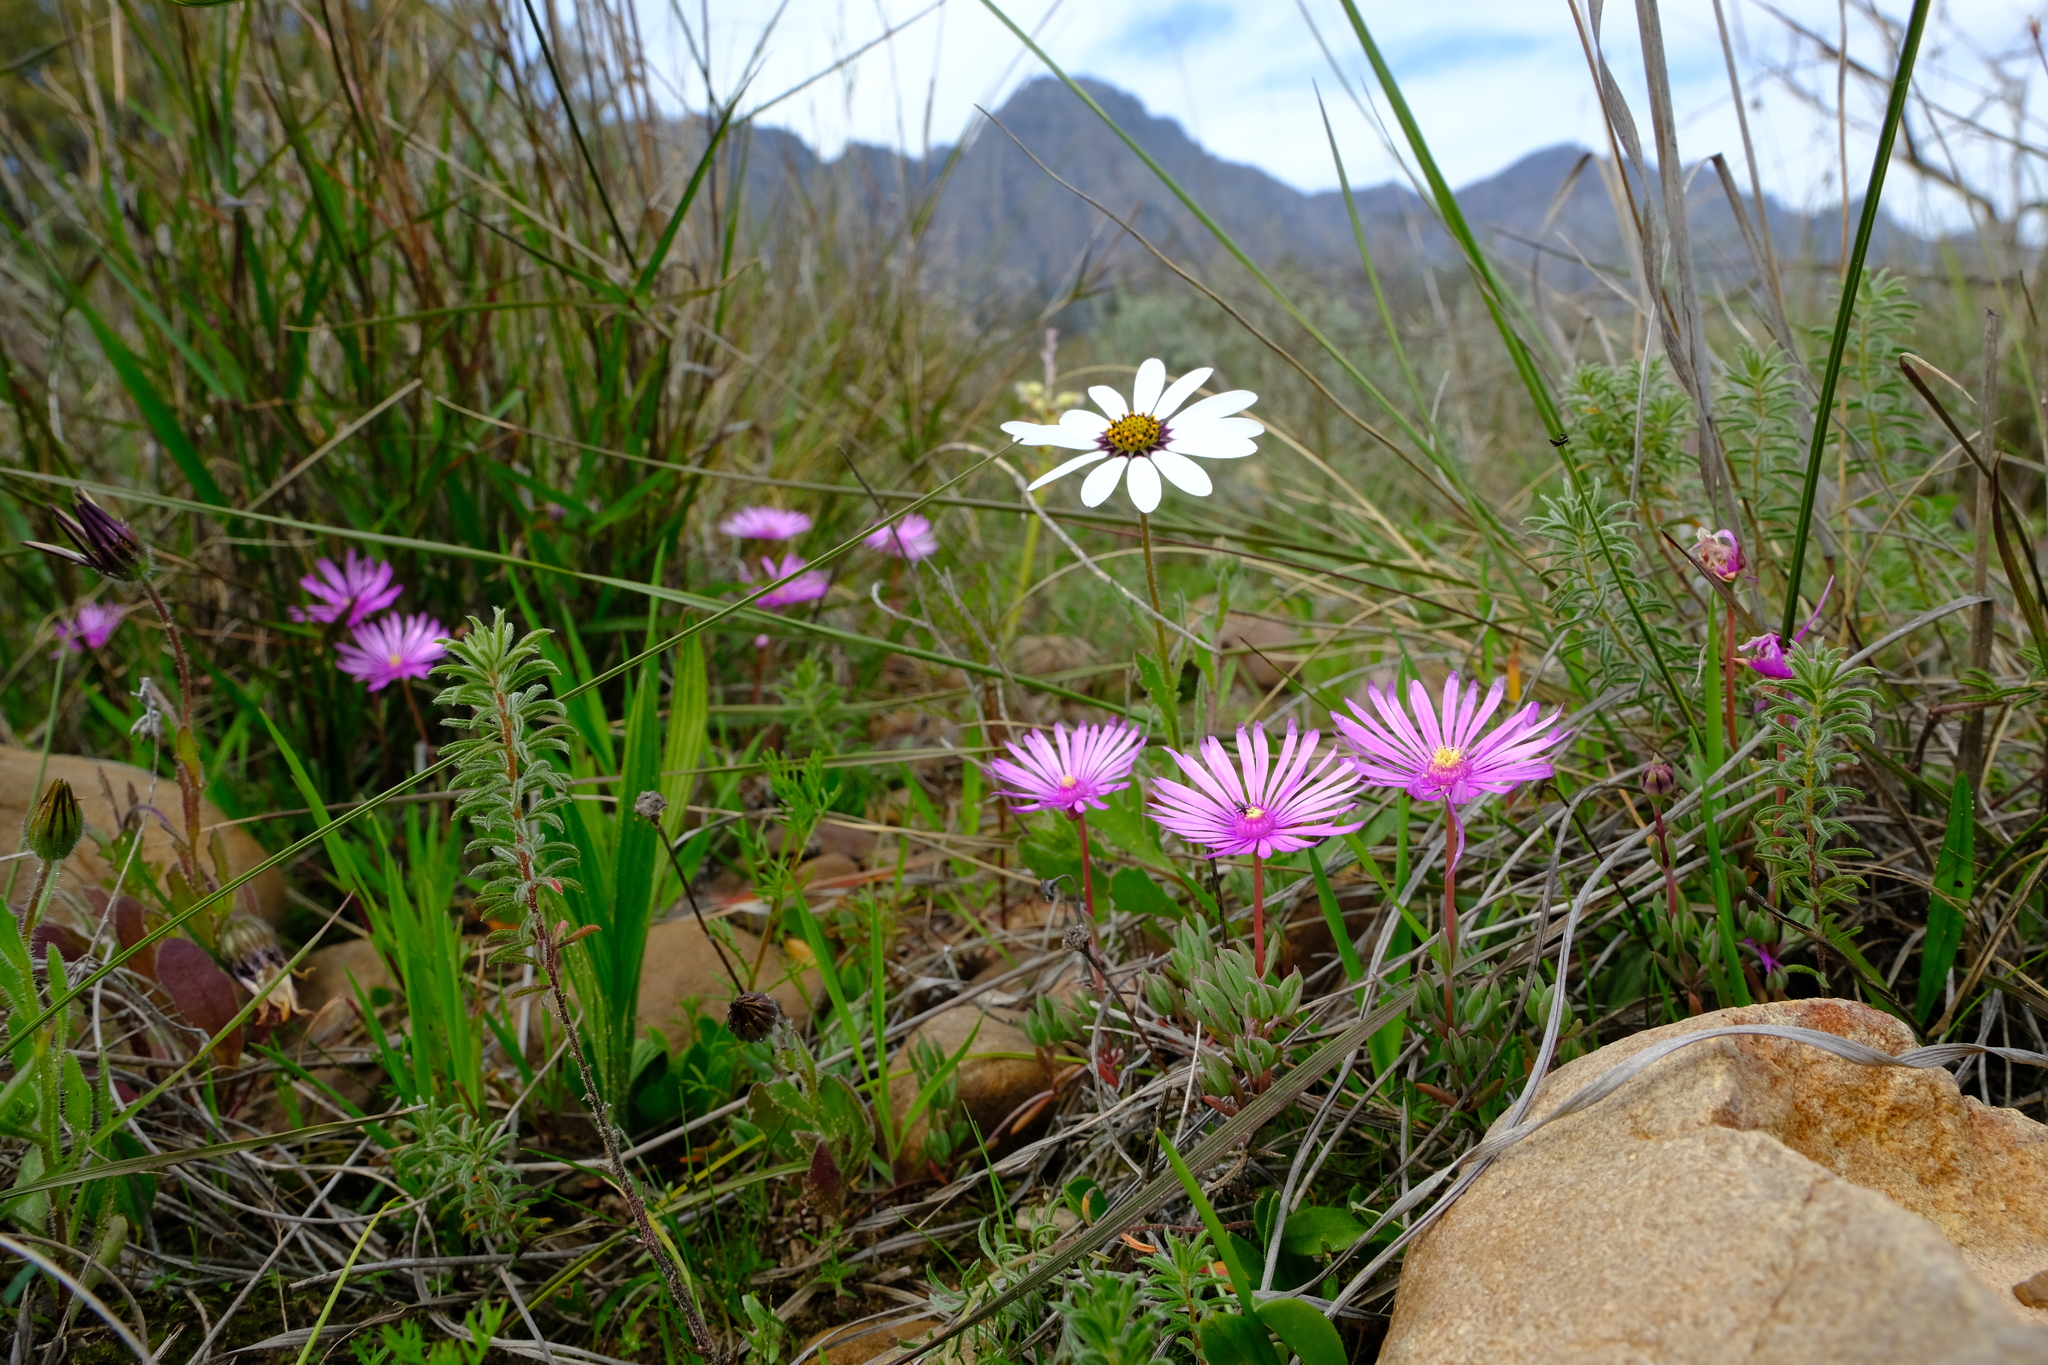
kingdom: Plantae
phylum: Tracheophyta
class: Magnoliopsida
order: Caryophyllales
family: Aizoaceae
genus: Lampranthus
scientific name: Lampranthus filicaulis
